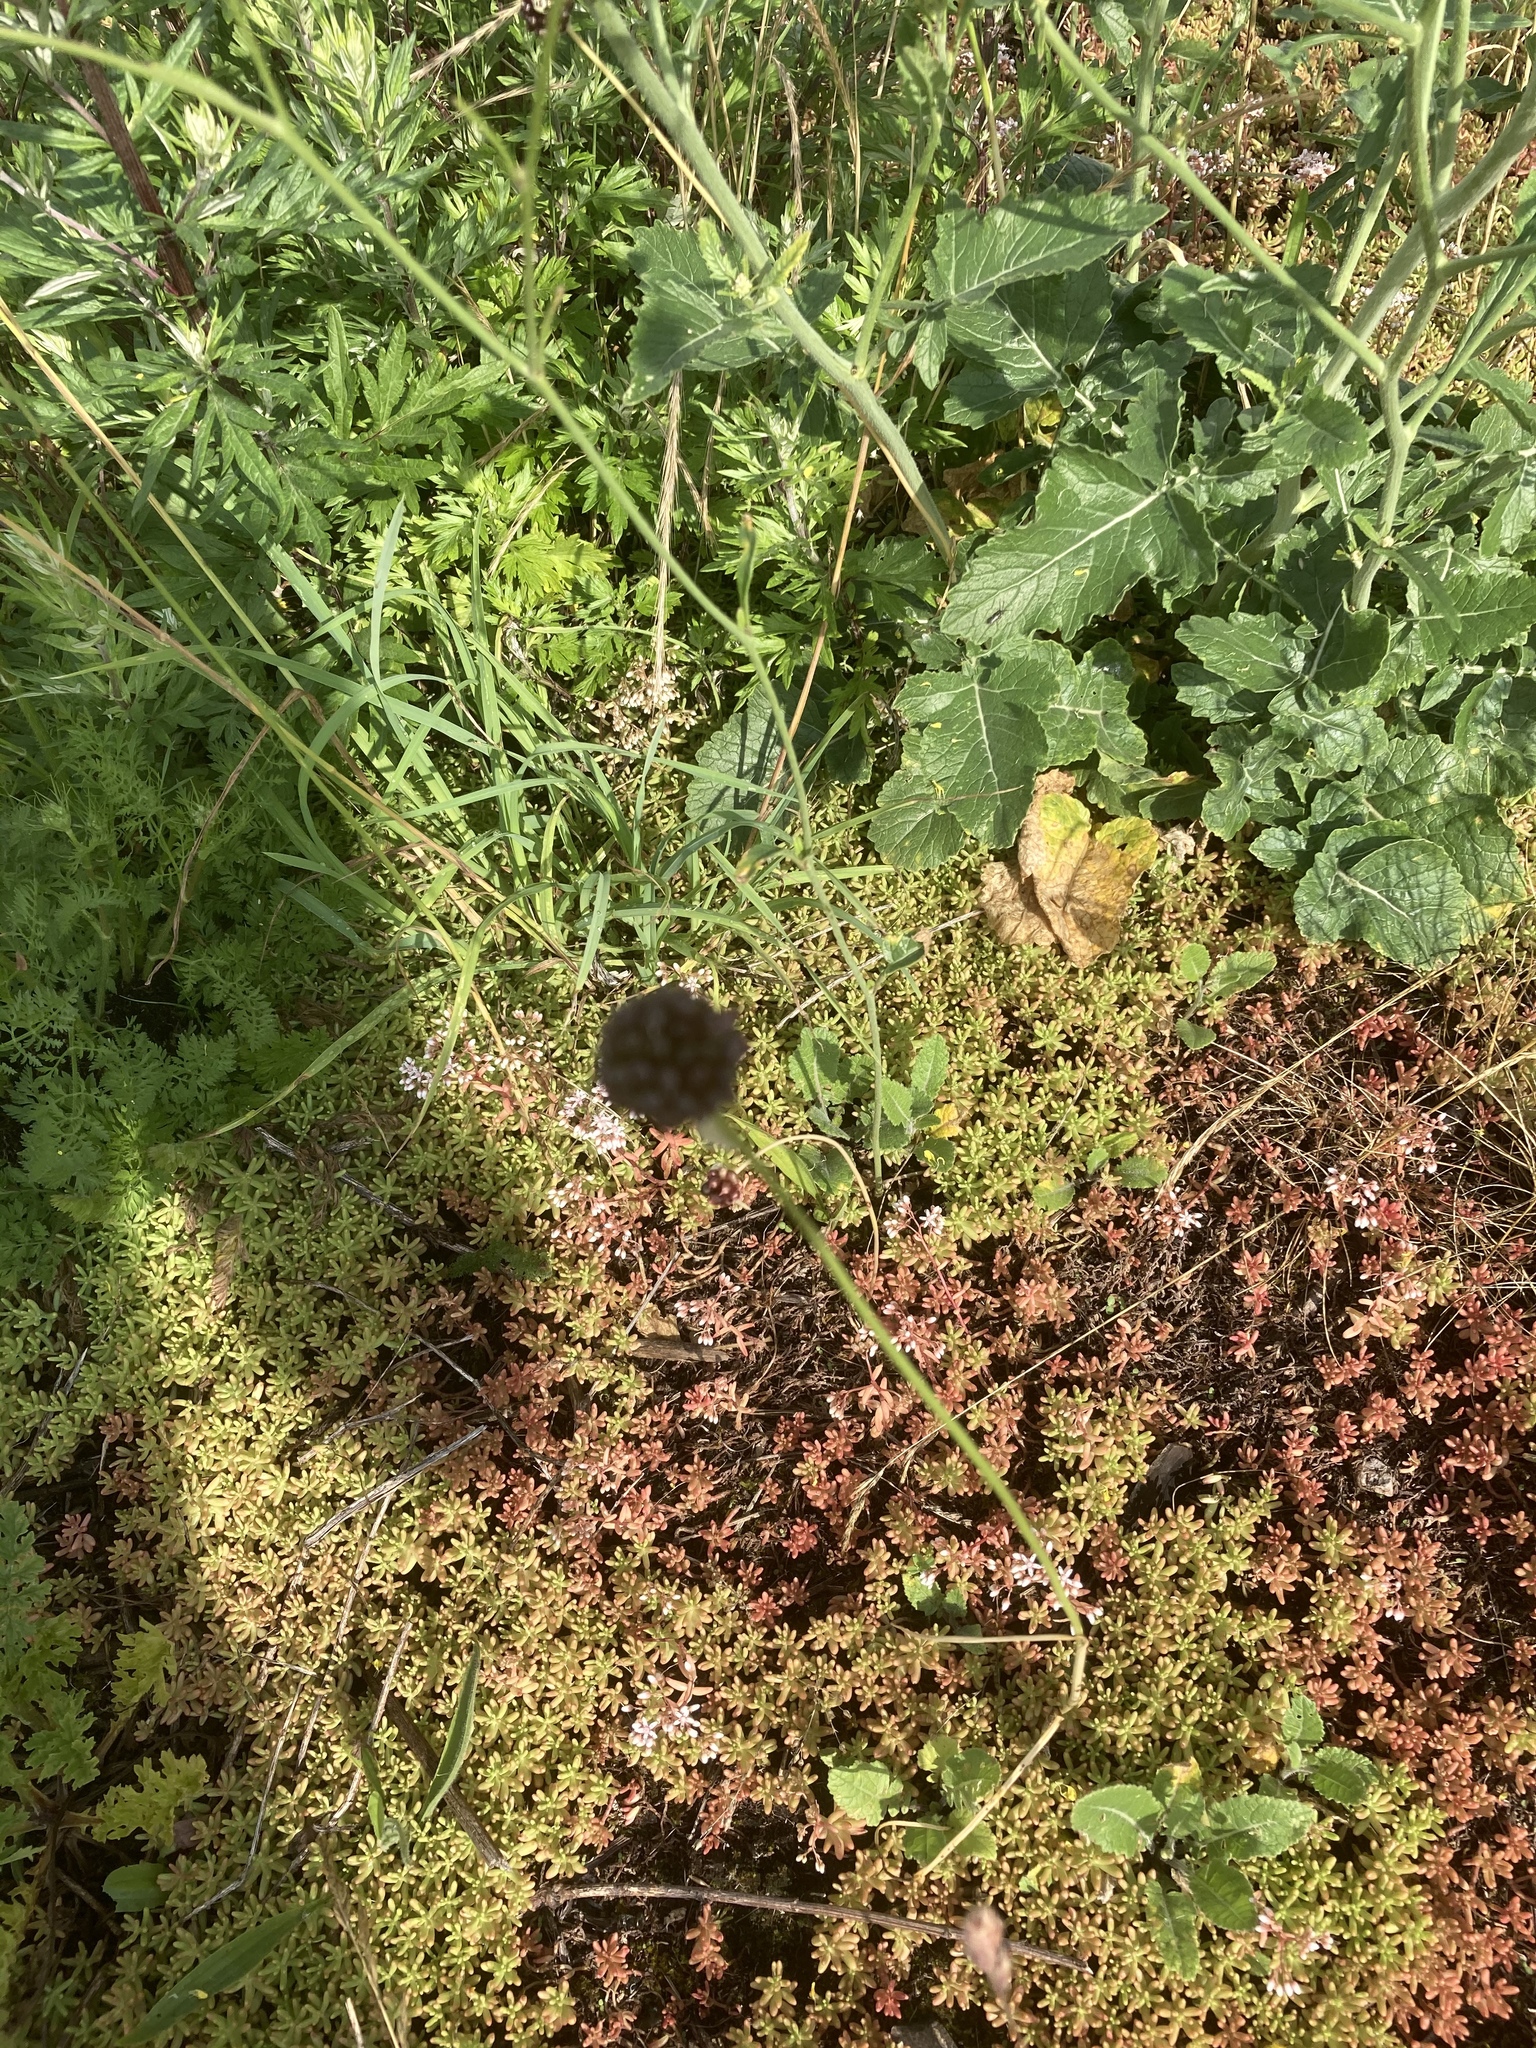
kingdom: Plantae
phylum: Tracheophyta
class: Liliopsida
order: Asparagales
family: Amaryllidaceae
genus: Allium
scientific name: Allium vineale
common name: Crow garlic
